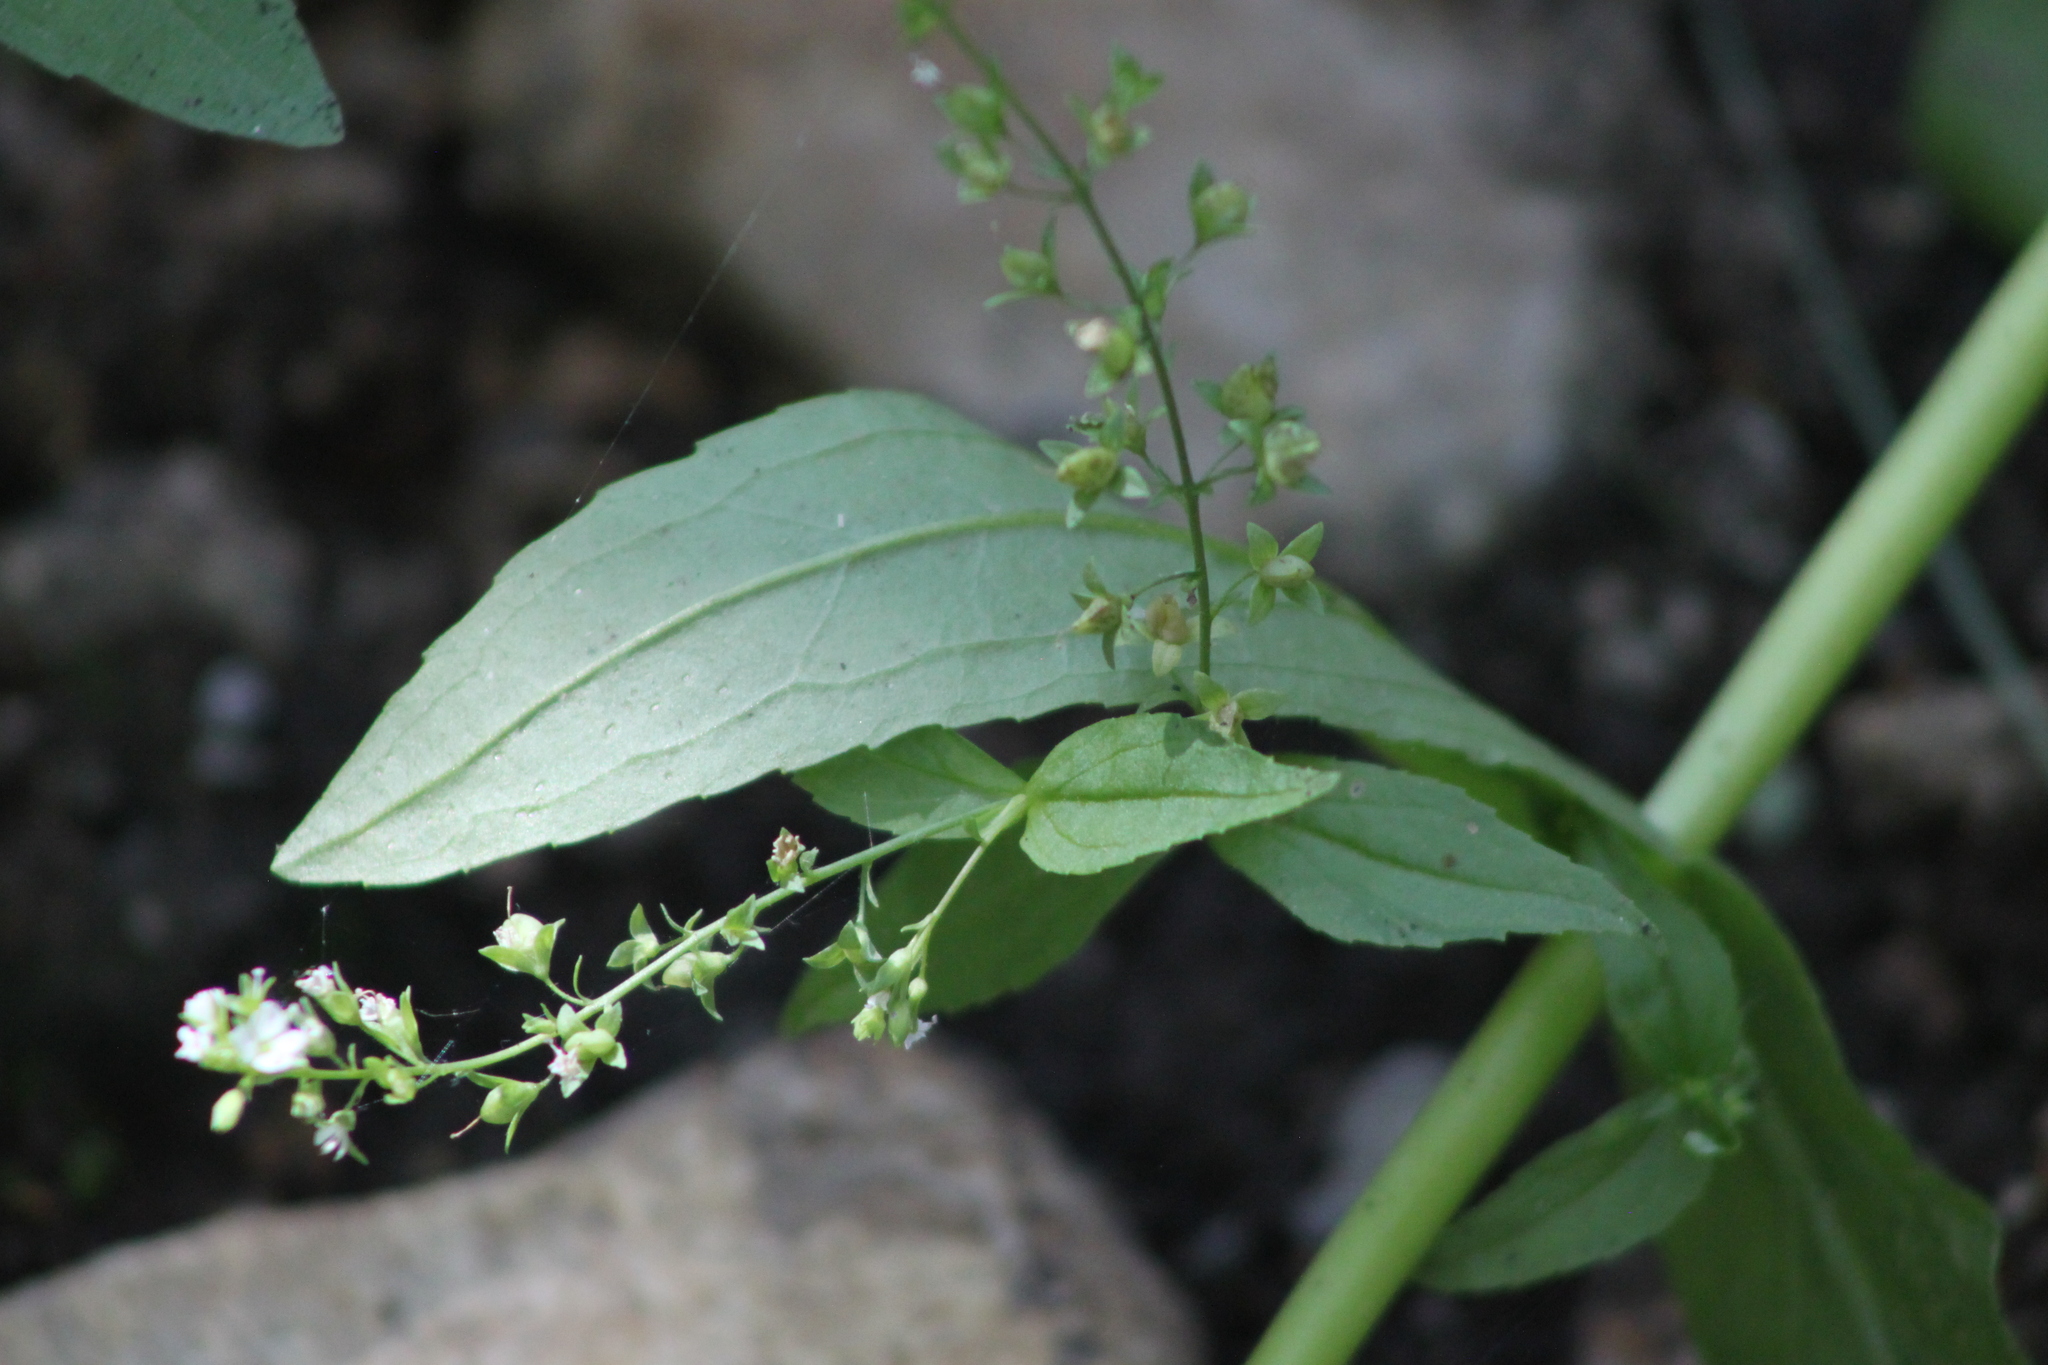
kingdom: Plantae
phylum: Tracheophyta
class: Magnoliopsida
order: Lamiales
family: Plantaginaceae
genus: Veronica
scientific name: Veronica anagallis-aquatica
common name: Water speedwell
